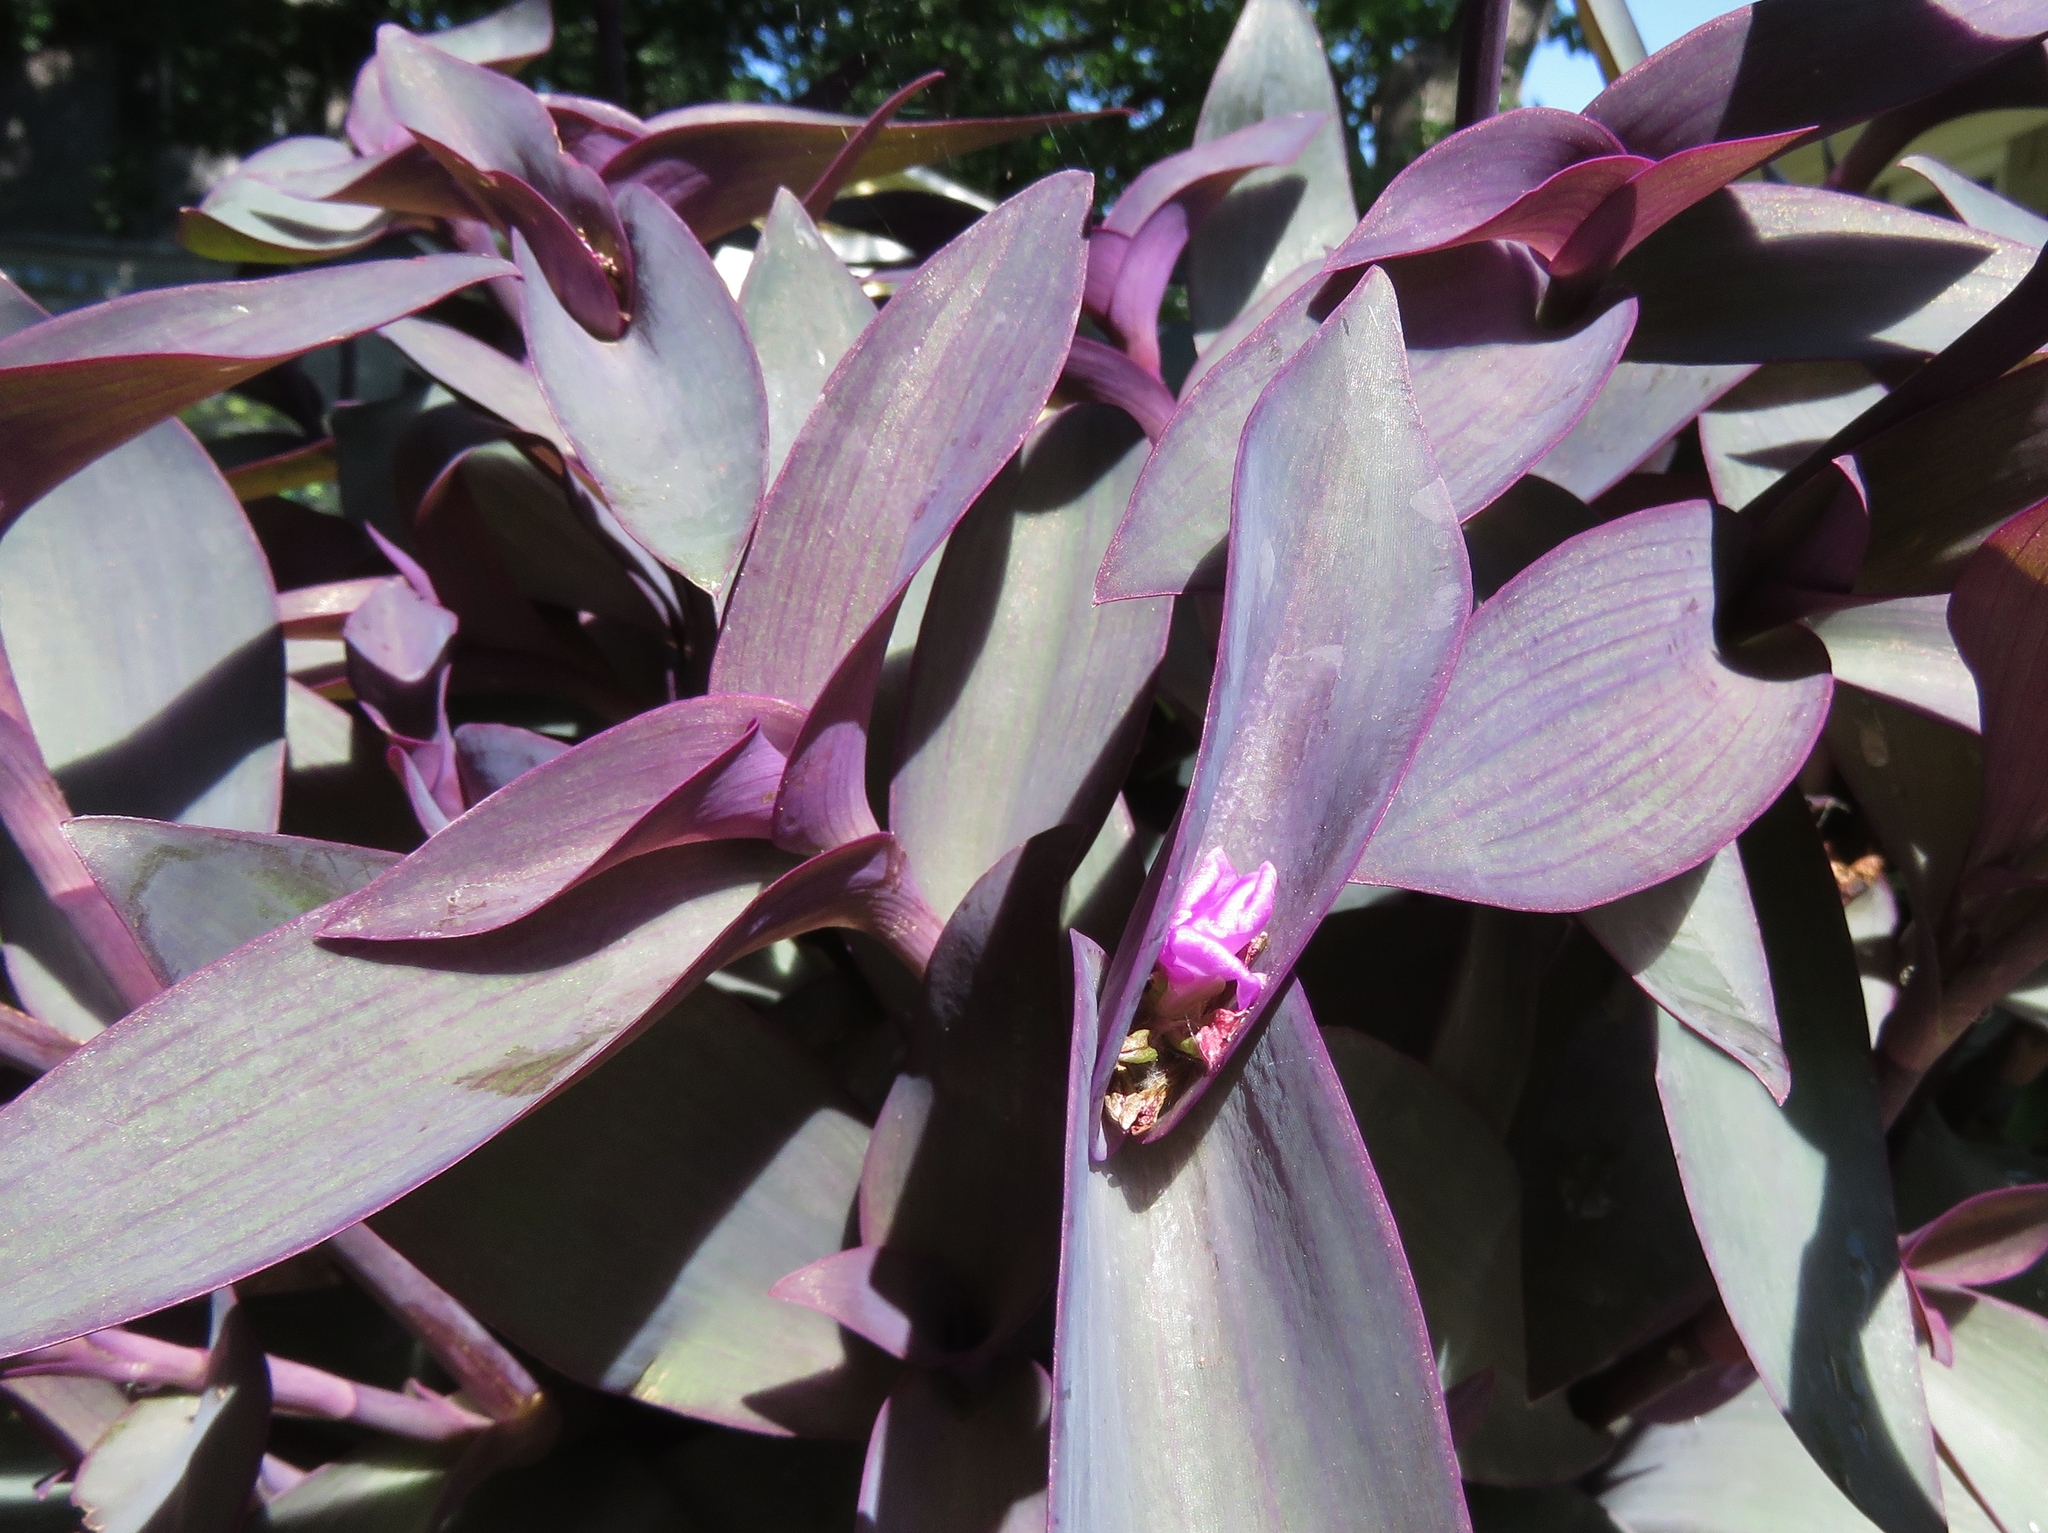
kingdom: Plantae
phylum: Tracheophyta
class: Liliopsida
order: Commelinales
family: Commelinaceae
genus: Tradescantia
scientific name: Tradescantia pallida
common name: Purpleheart
